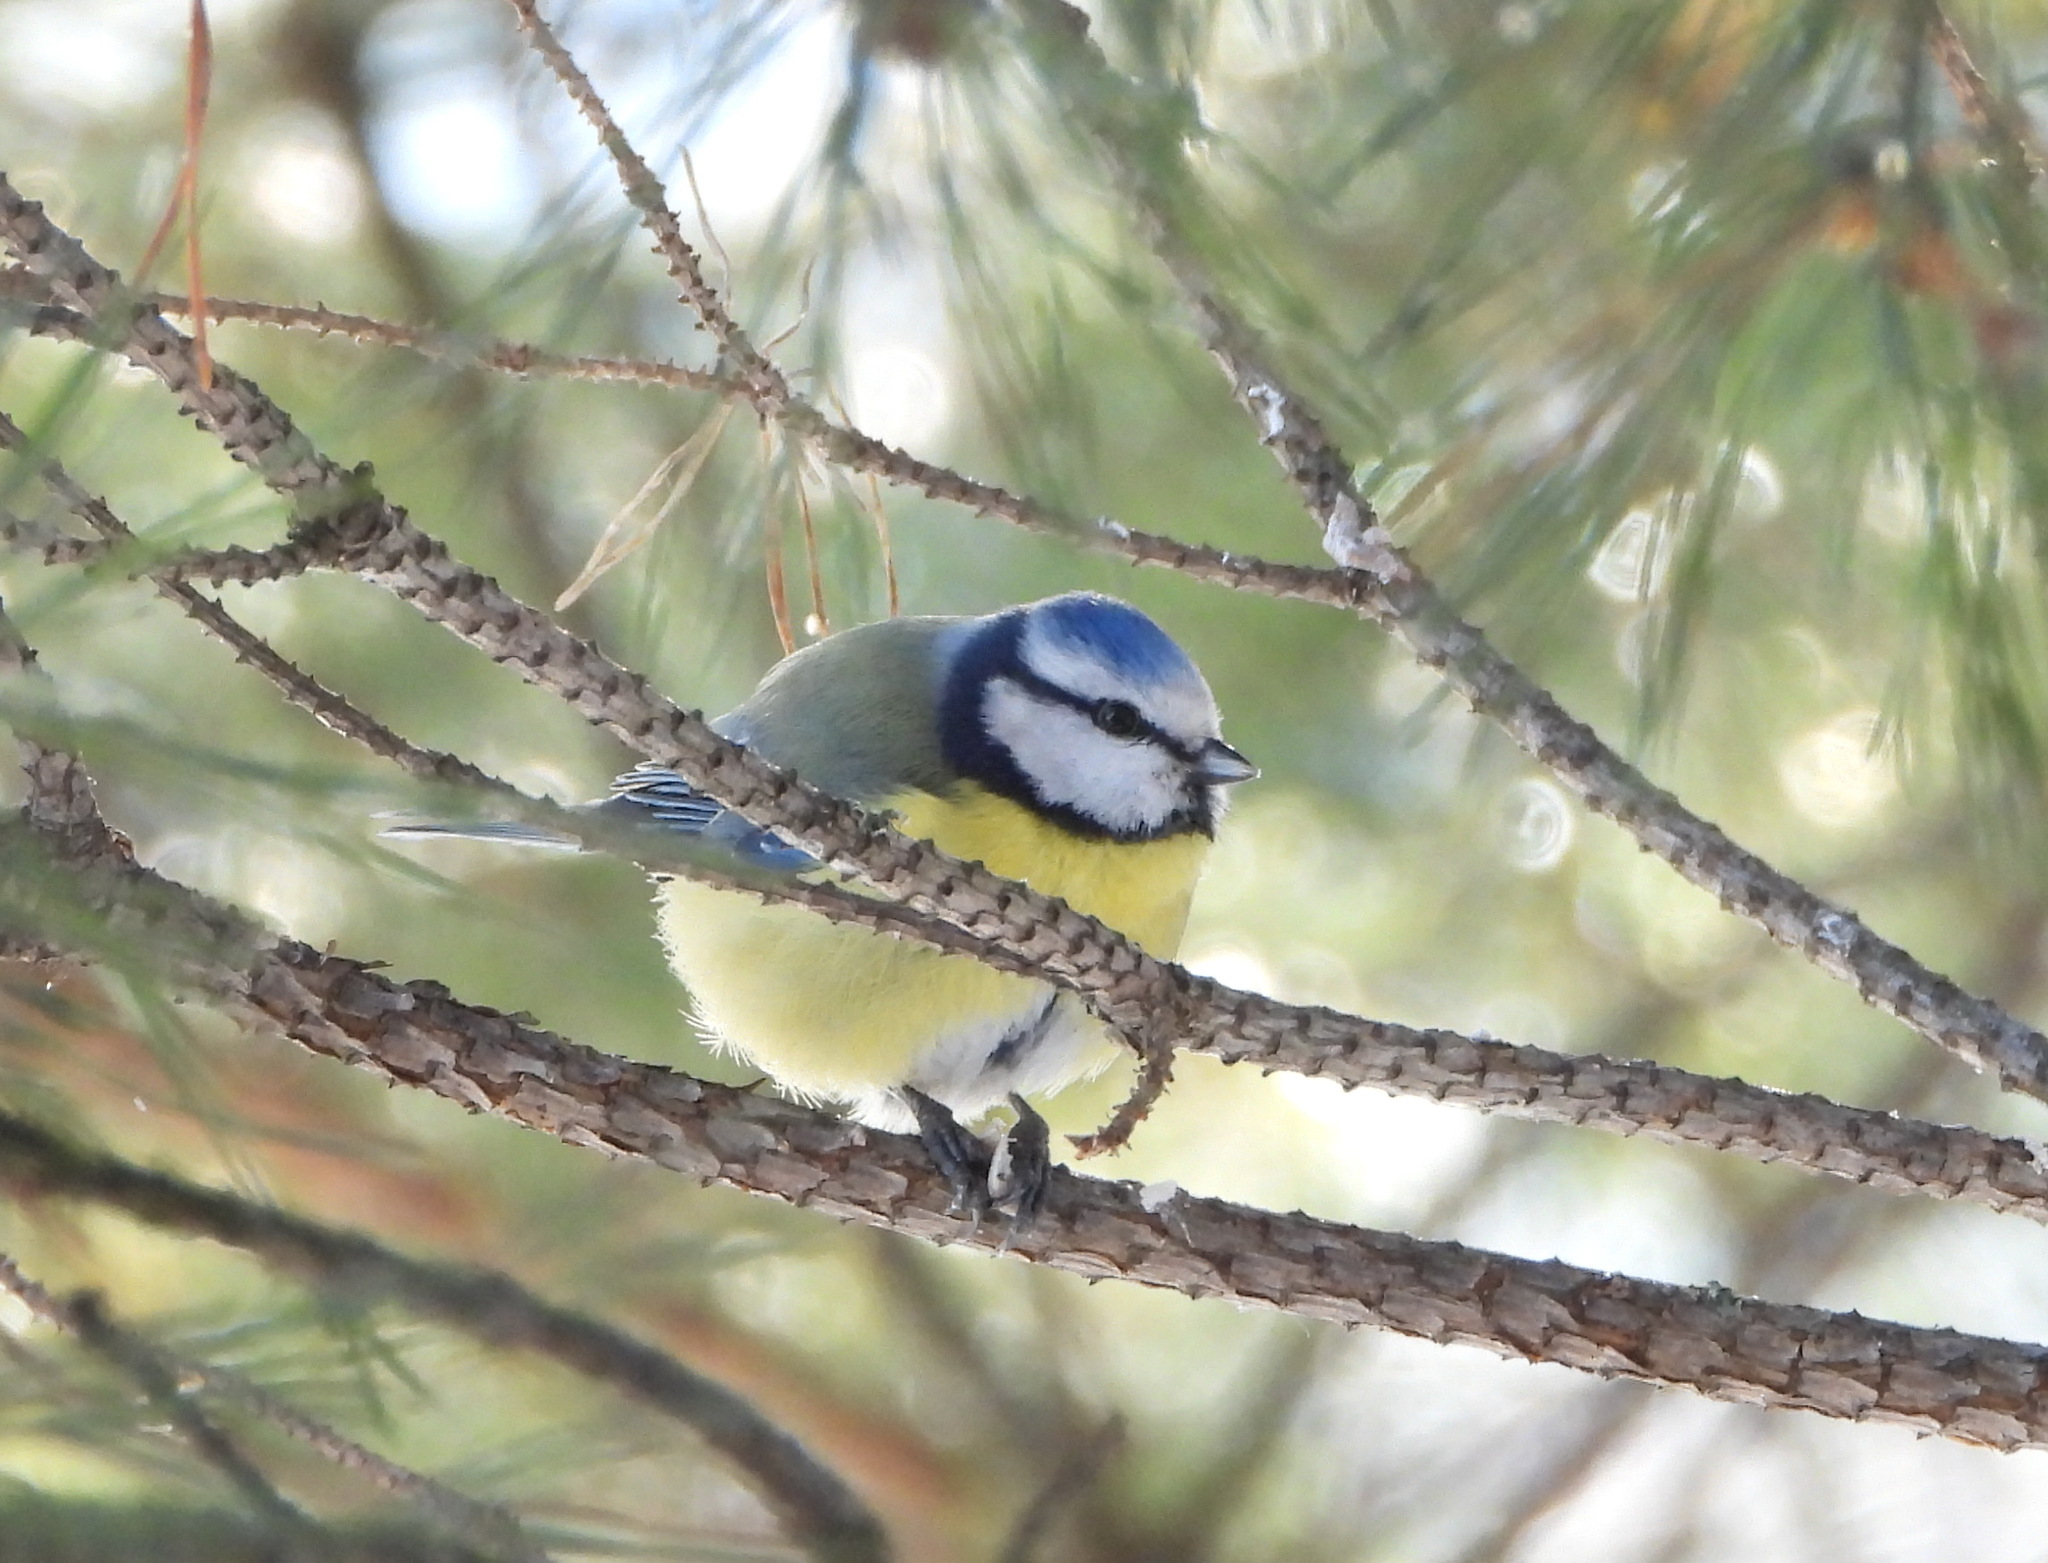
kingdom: Animalia
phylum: Chordata
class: Aves
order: Passeriformes
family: Paridae
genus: Cyanistes
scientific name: Cyanistes caeruleus
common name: Eurasian blue tit
